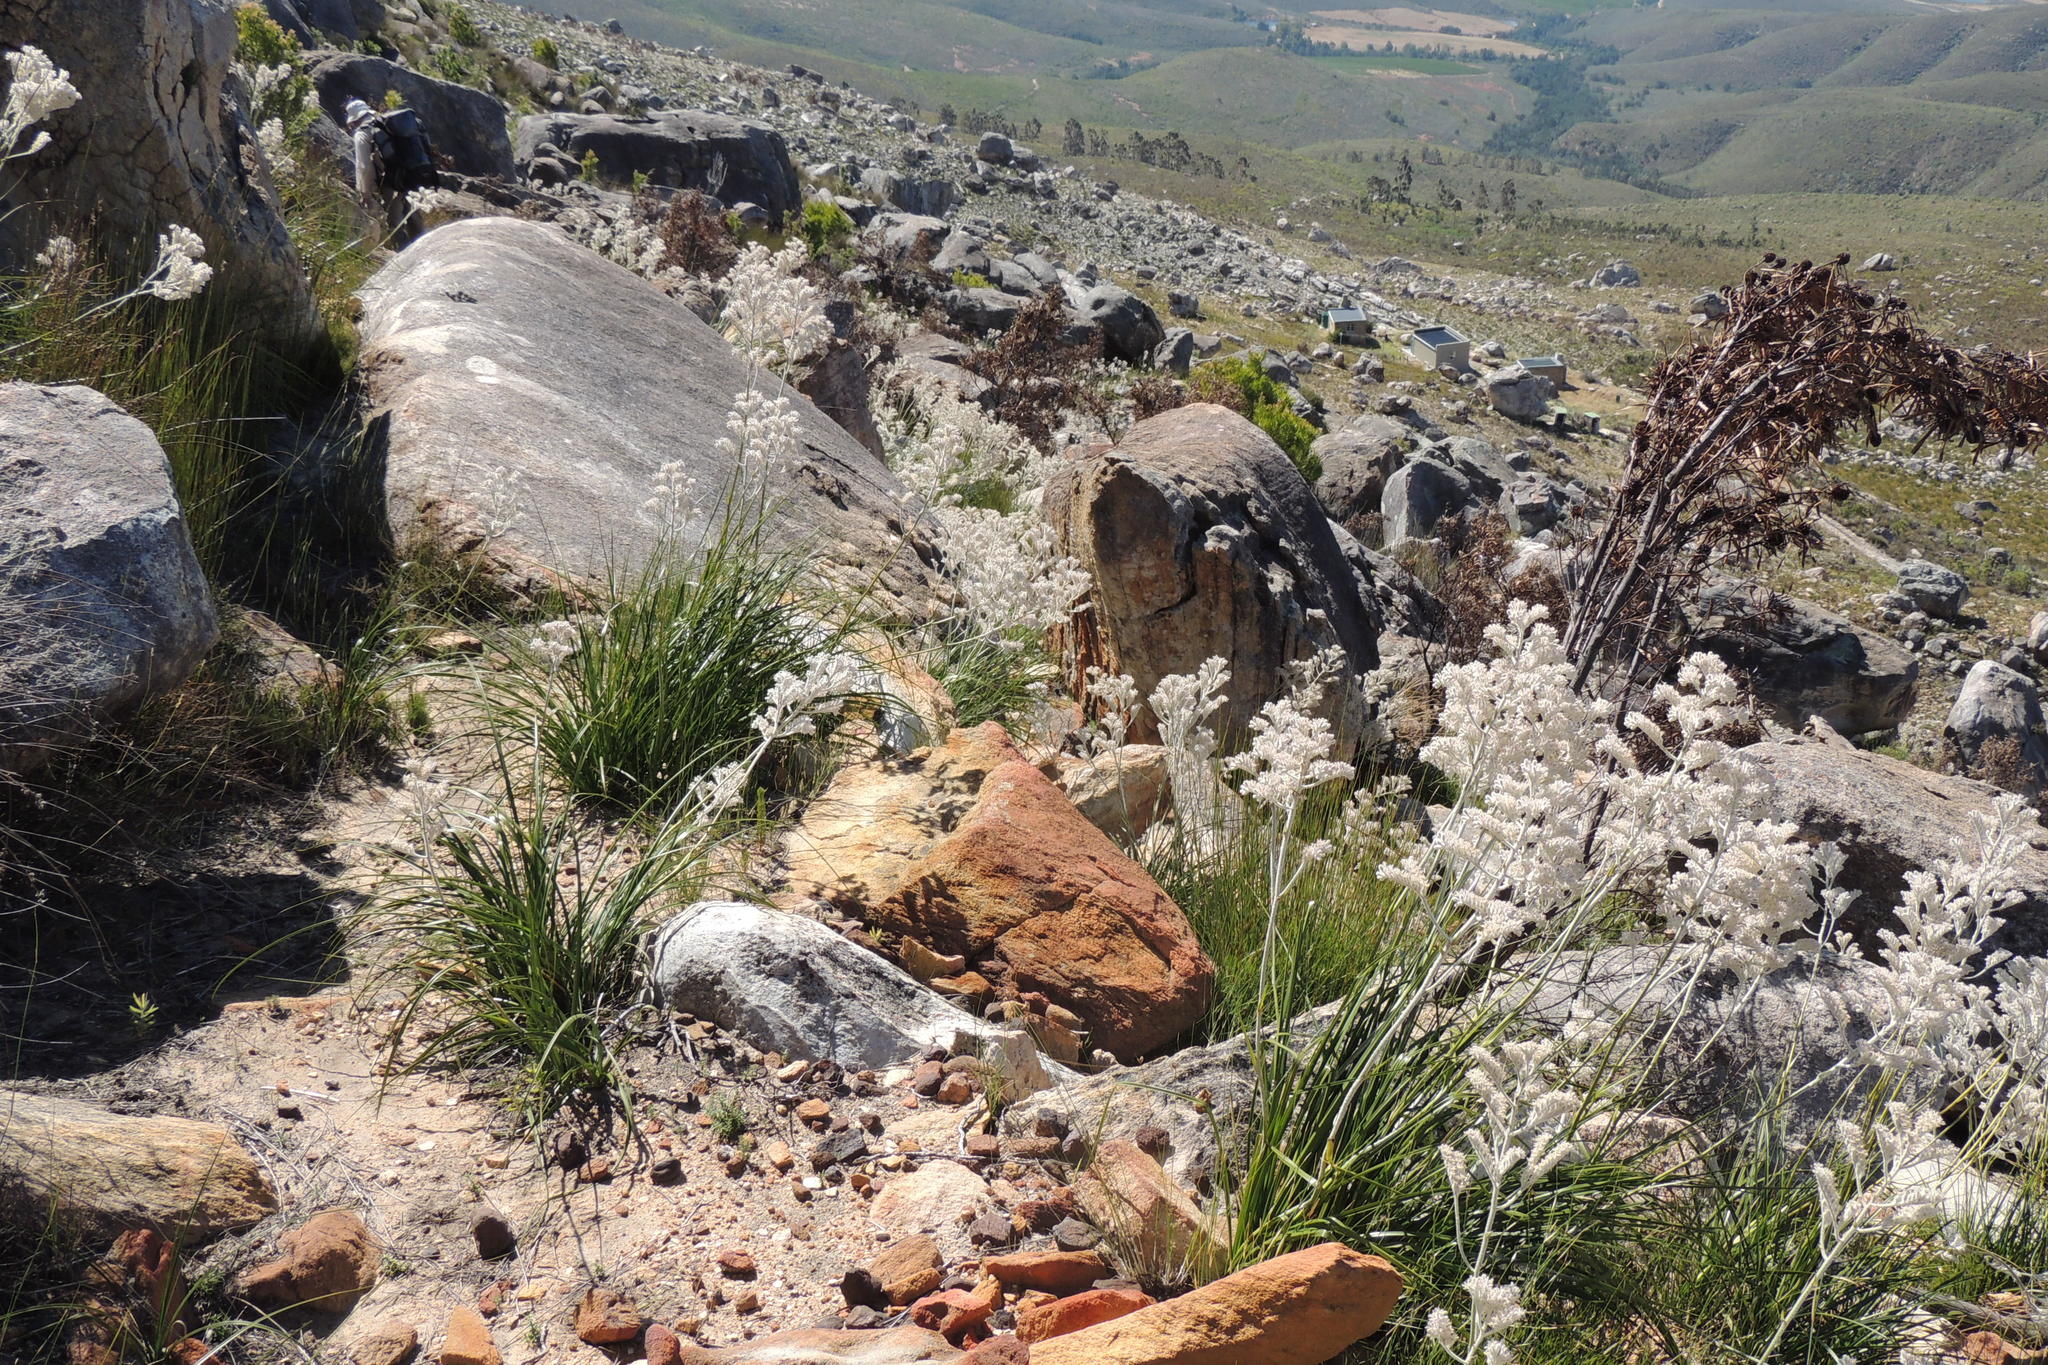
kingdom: Plantae
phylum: Tracheophyta
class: Liliopsida
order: Asparagales
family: Lanariaceae
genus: Lanaria
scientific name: Lanaria lanata
